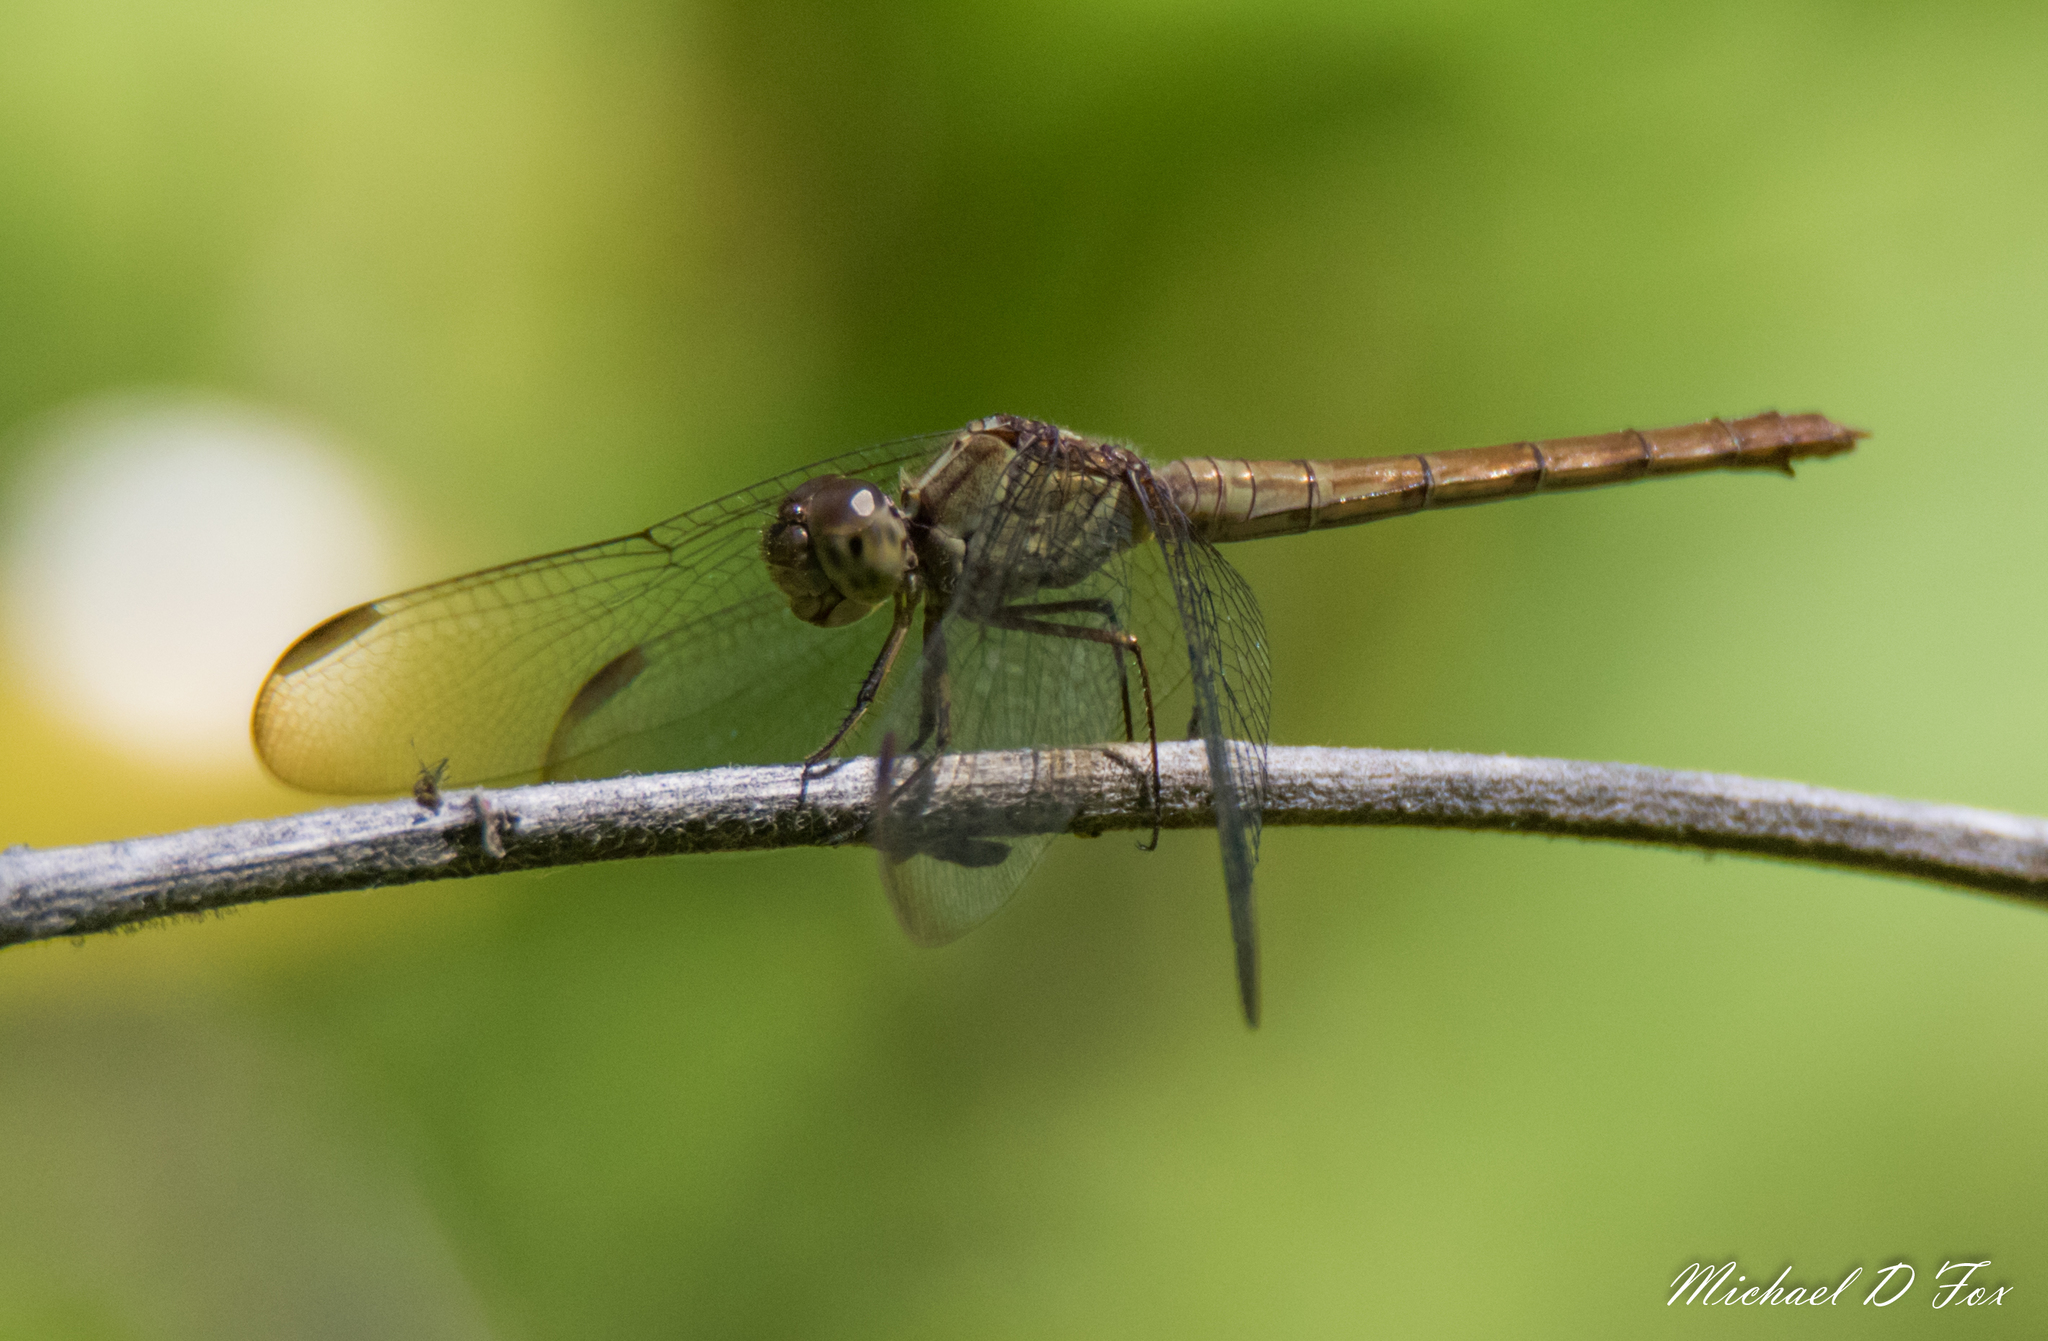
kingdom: Animalia
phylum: Arthropoda
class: Insecta
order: Odonata
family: Libellulidae
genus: Erythrodiplax
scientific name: Erythrodiplax umbrata
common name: Band-winged dragonlet
